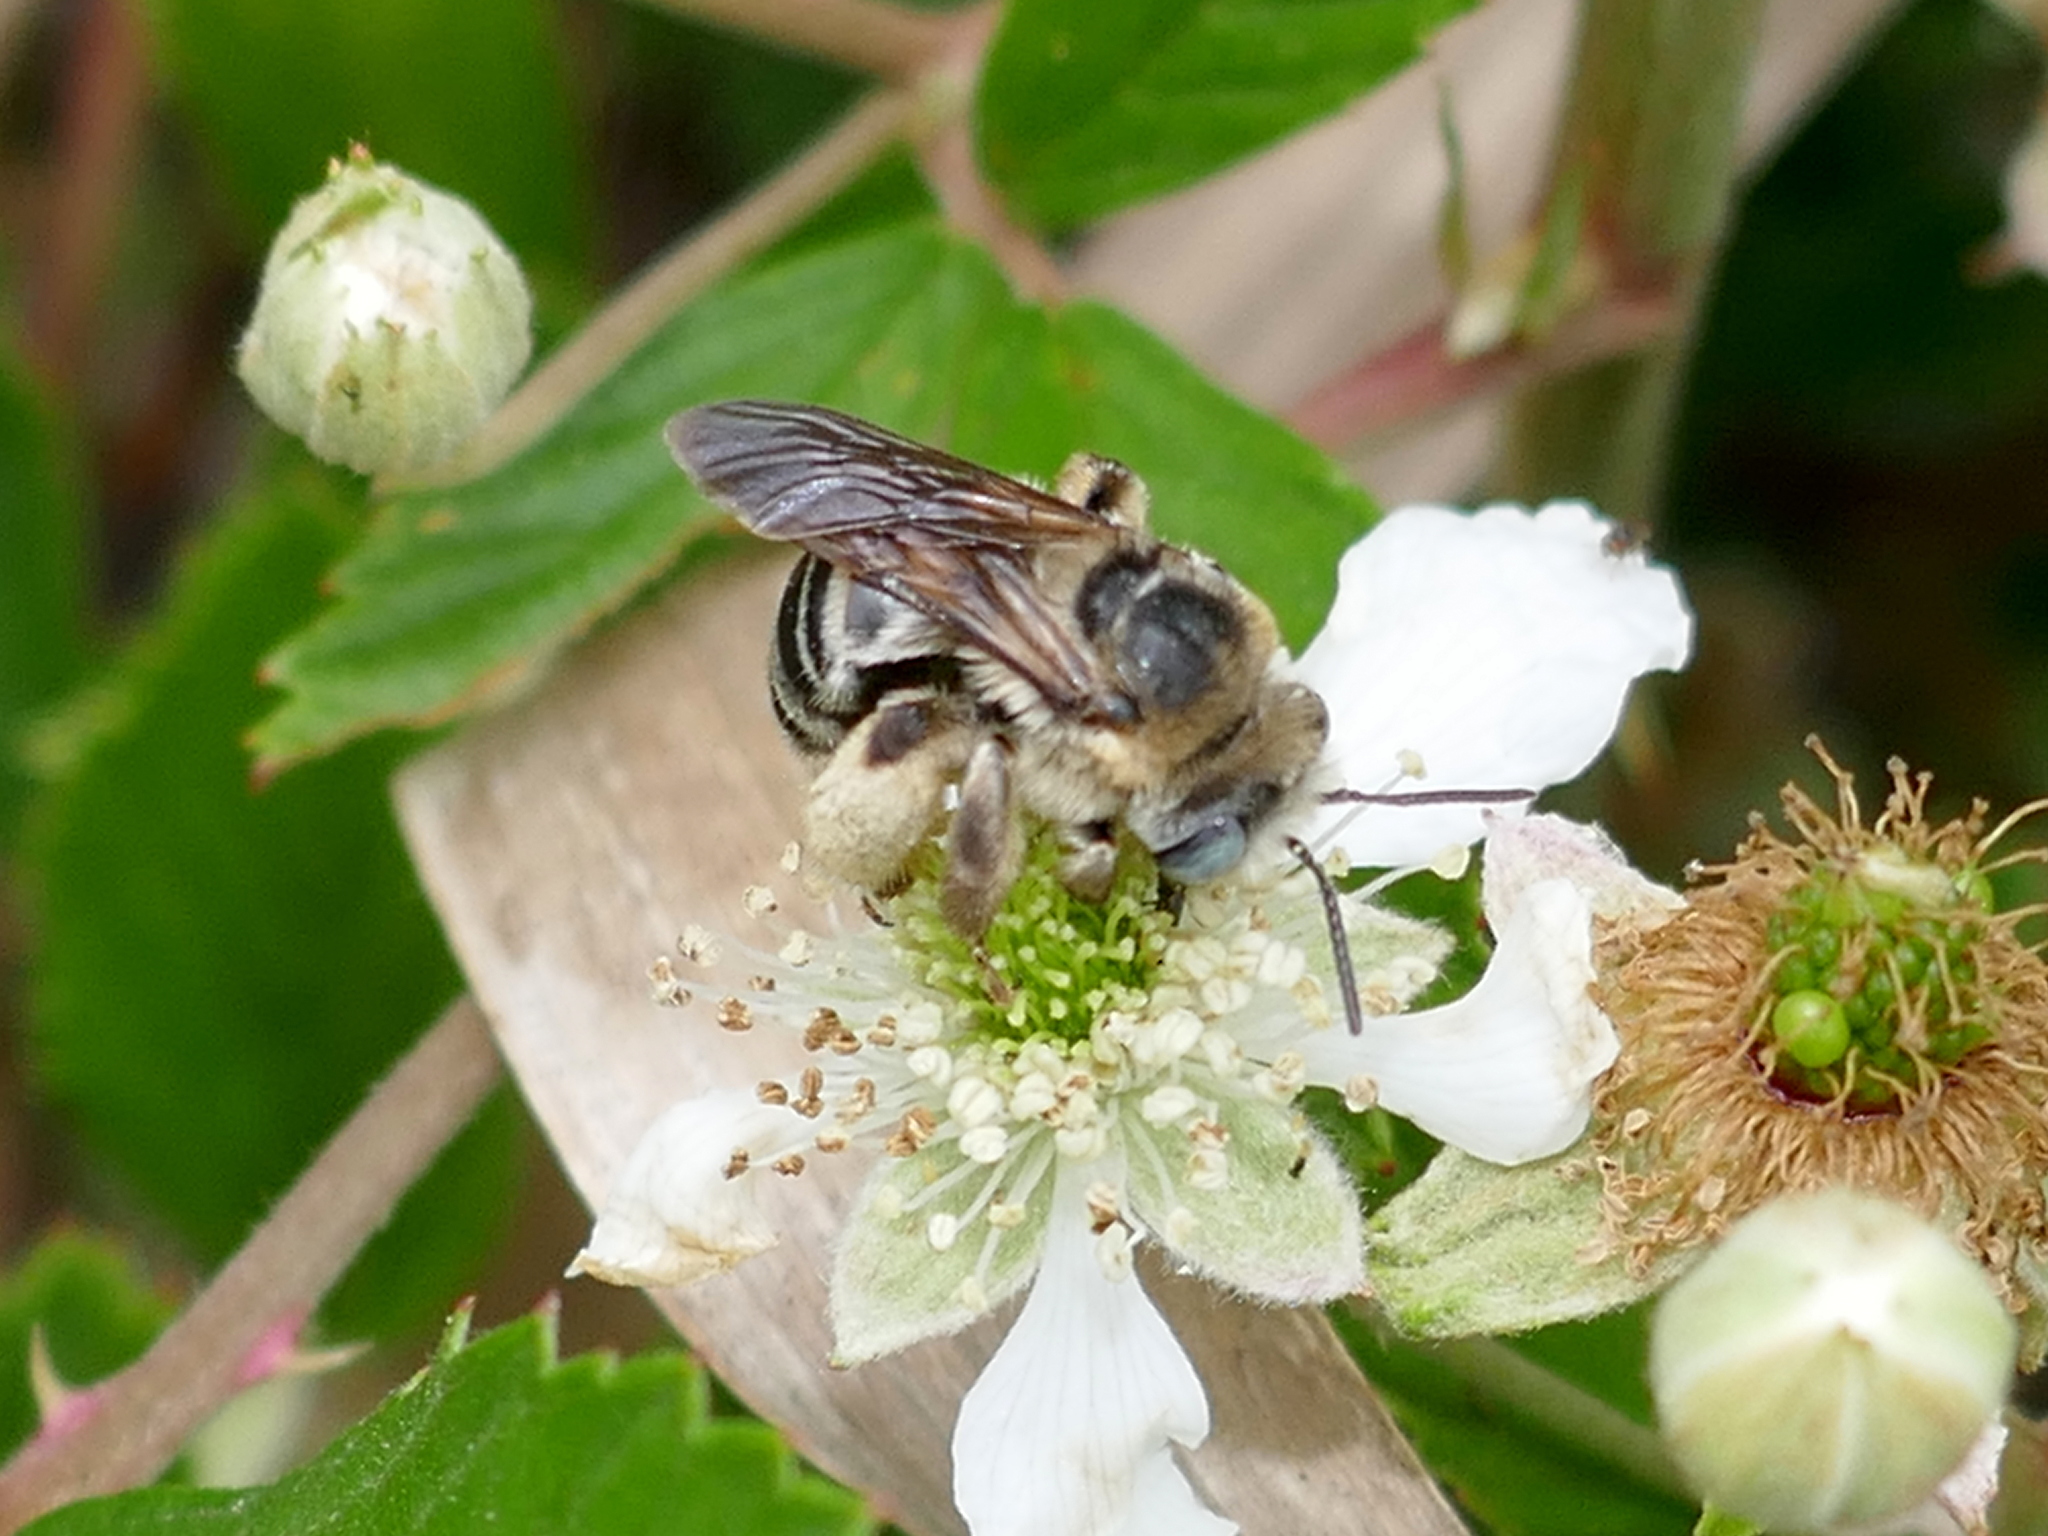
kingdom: Animalia
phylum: Arthropoda
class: Insecta
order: Hymenoptera
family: Apidae
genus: Melissodes
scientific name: Melissodes communis
